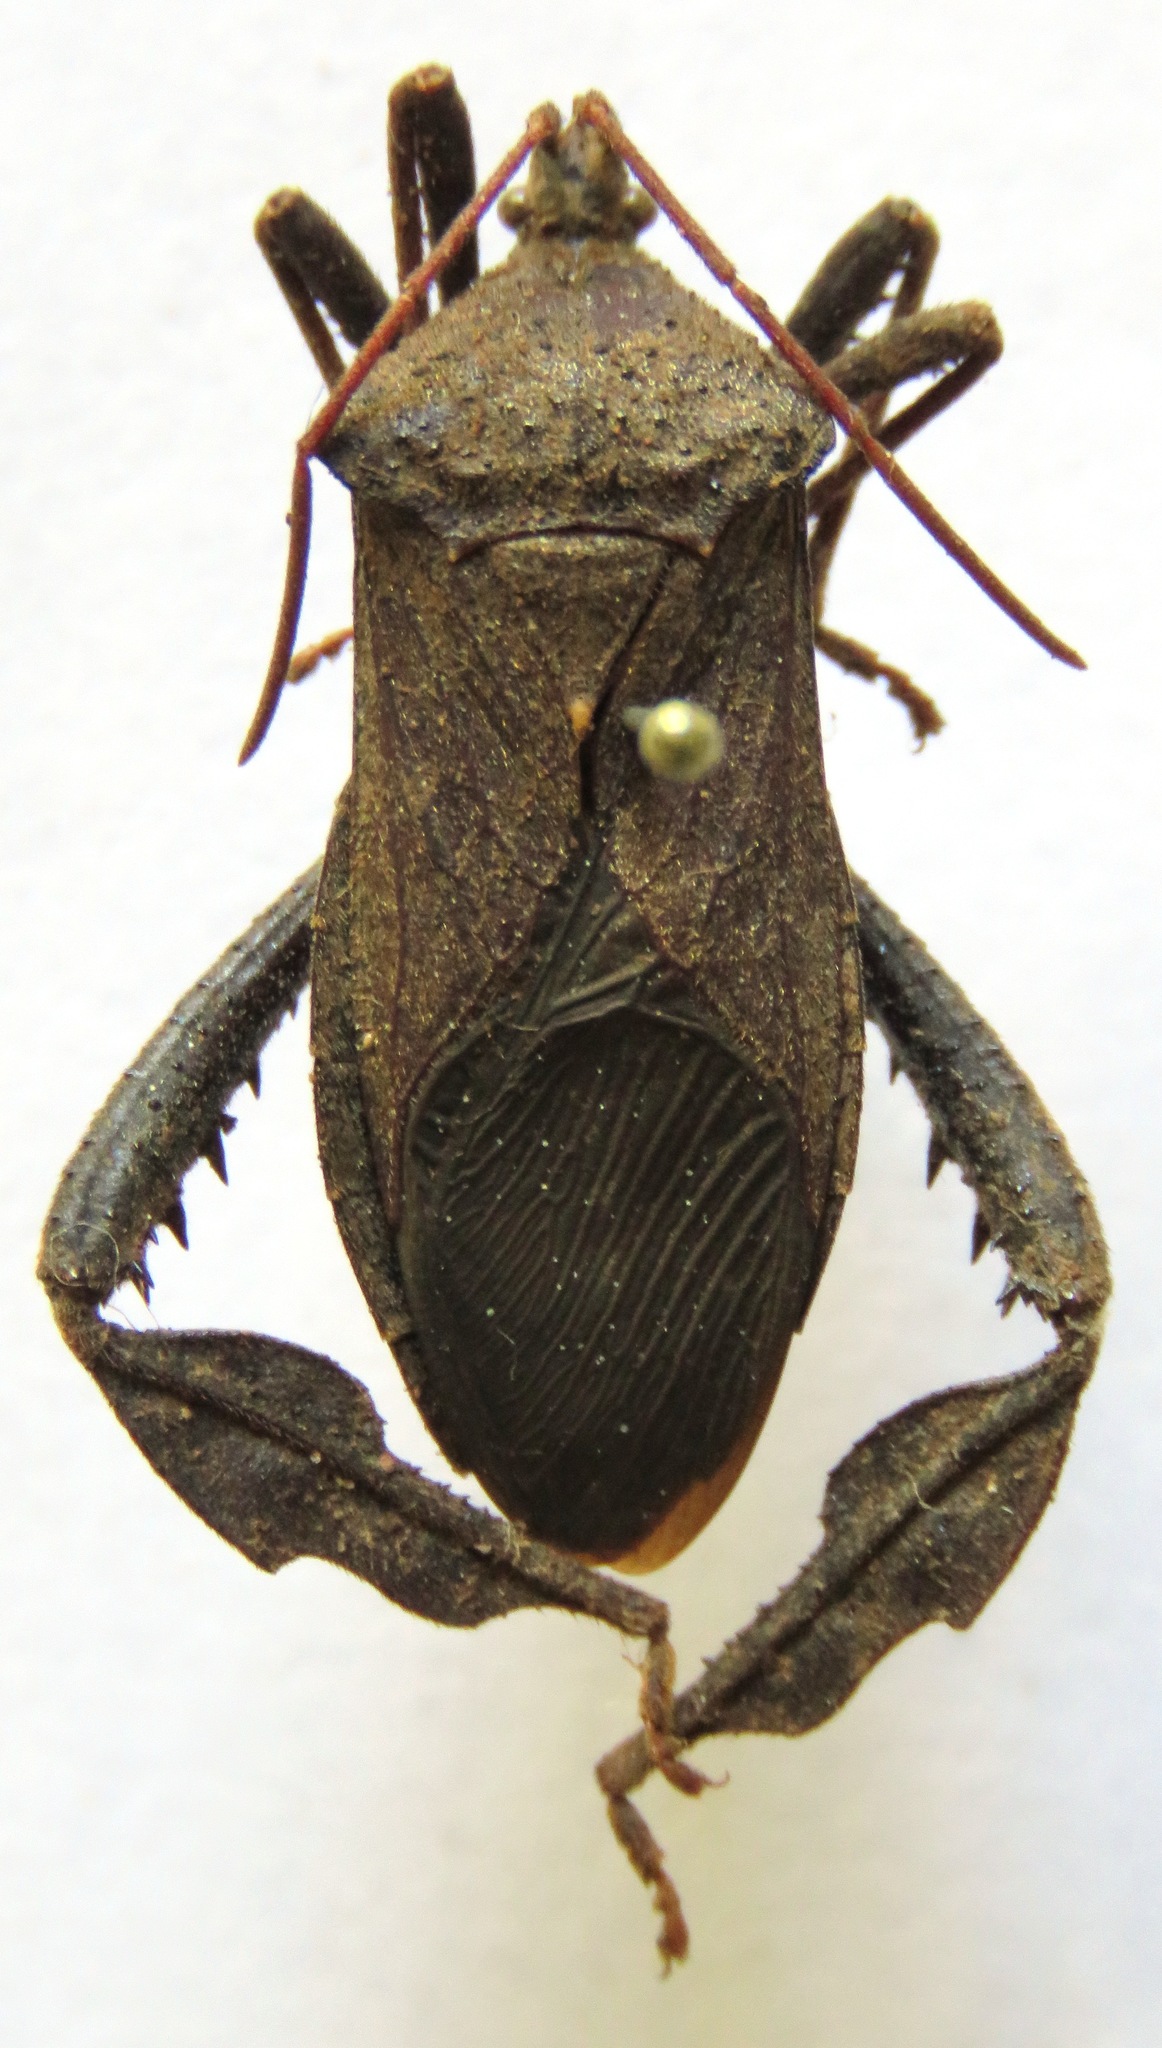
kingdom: Animalia
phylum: Arthropoda
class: Insecta
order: Hemiptera
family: Coreidae
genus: Acanthocephala
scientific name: Acanthocephala femorata
